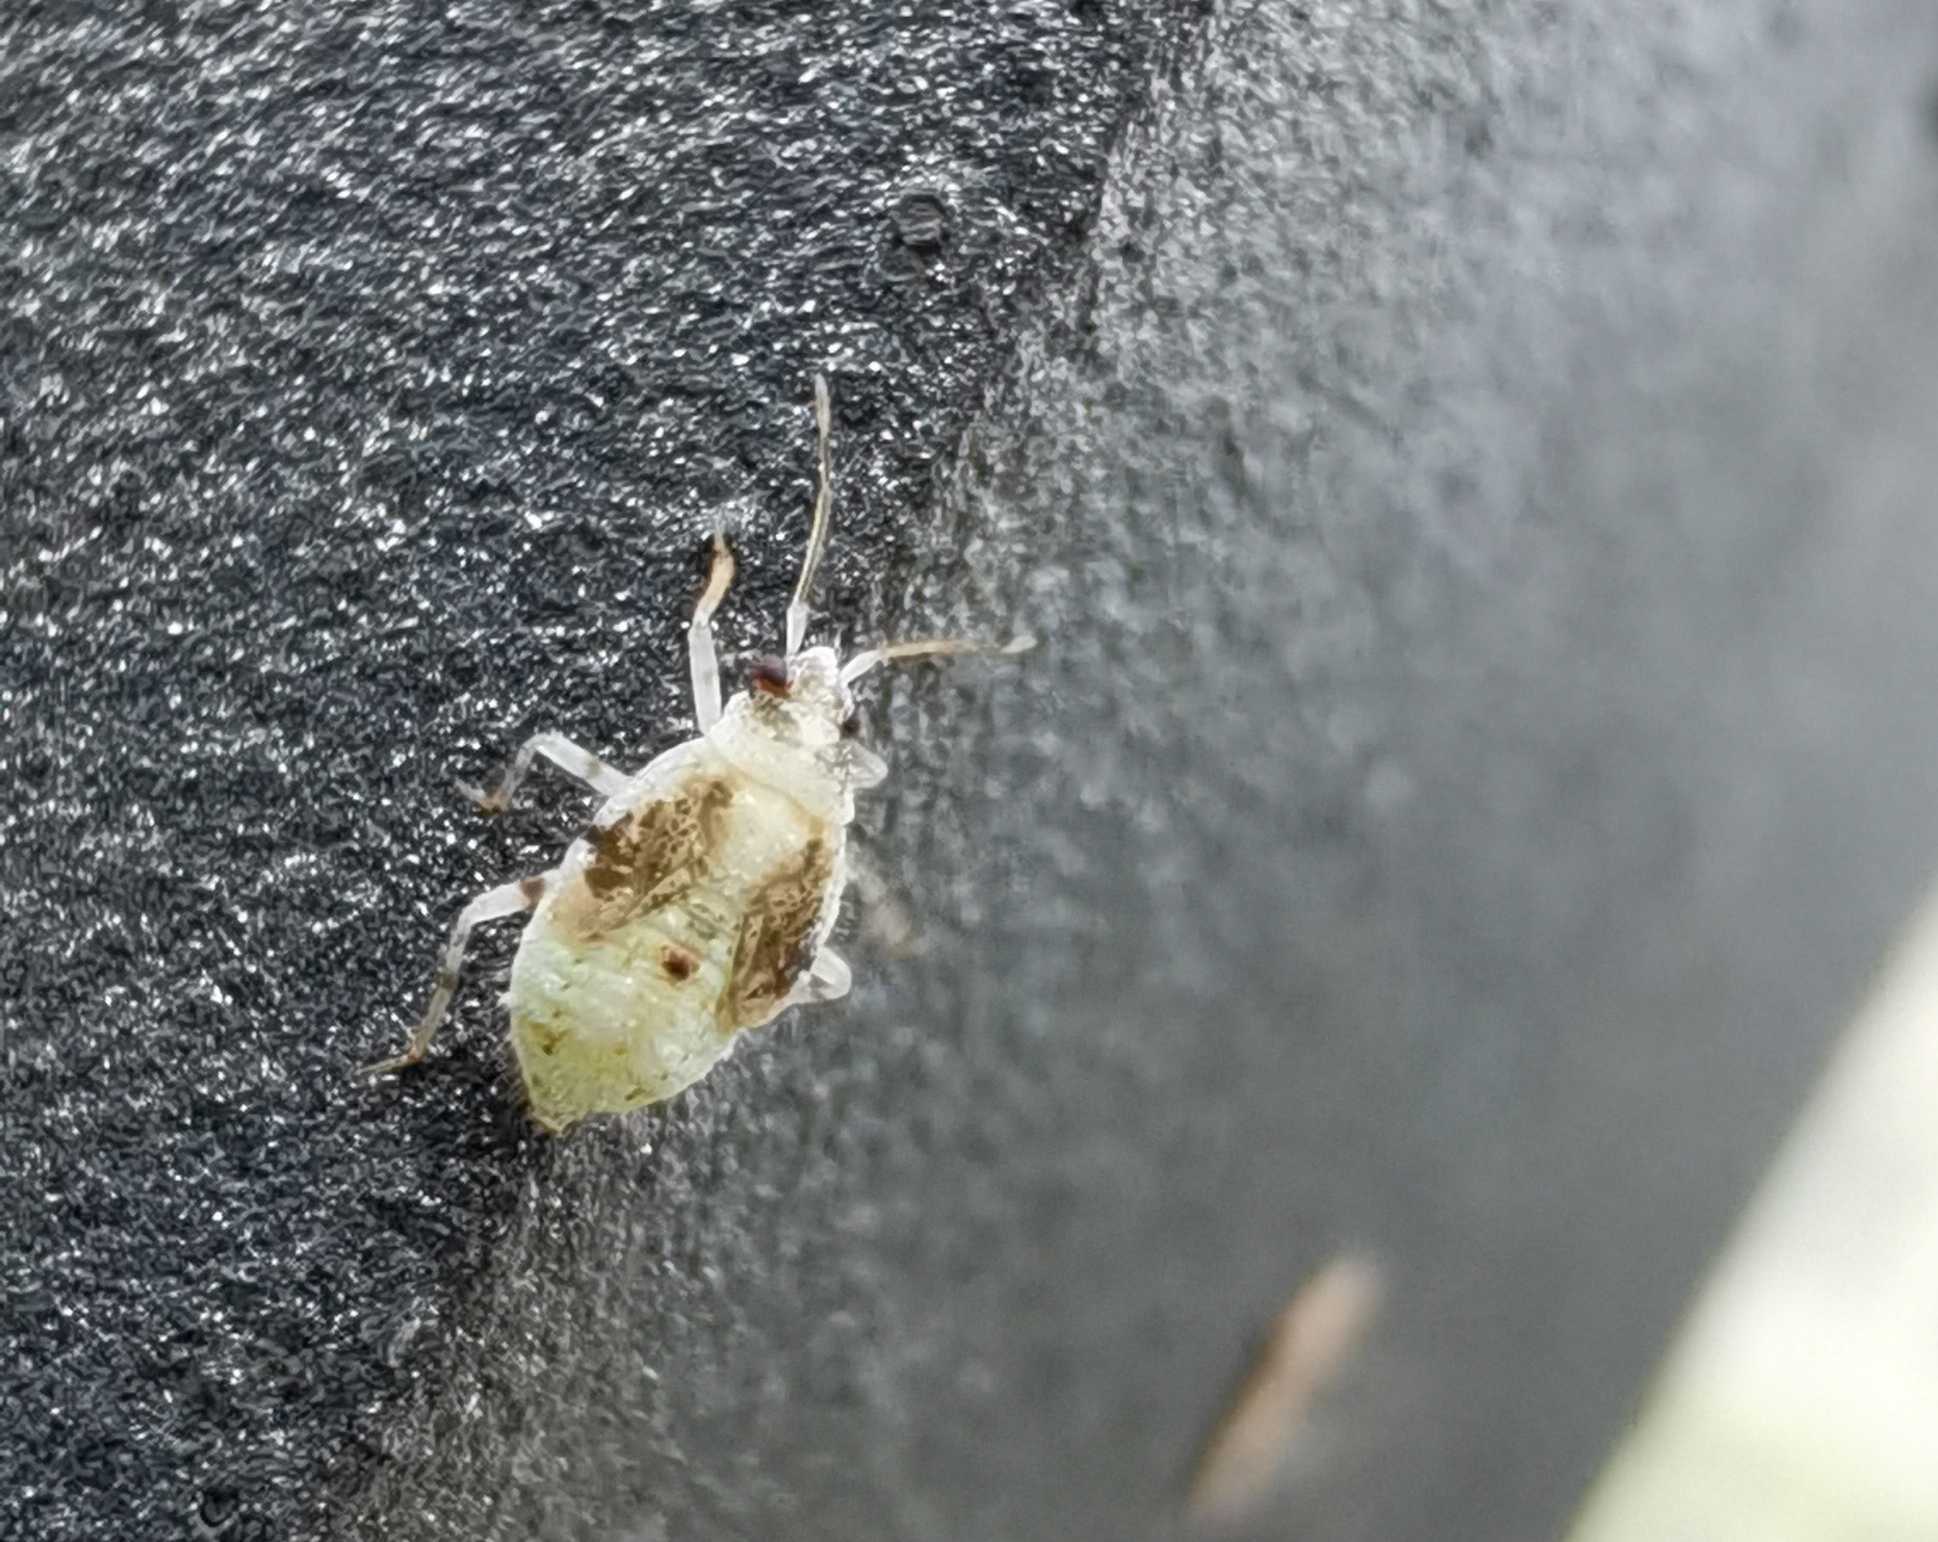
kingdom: Animalia
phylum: Arthropoda
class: Insecta
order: Hemiptera
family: Miridae
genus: Deraeocoris
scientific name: Deraeocoris lutescens
